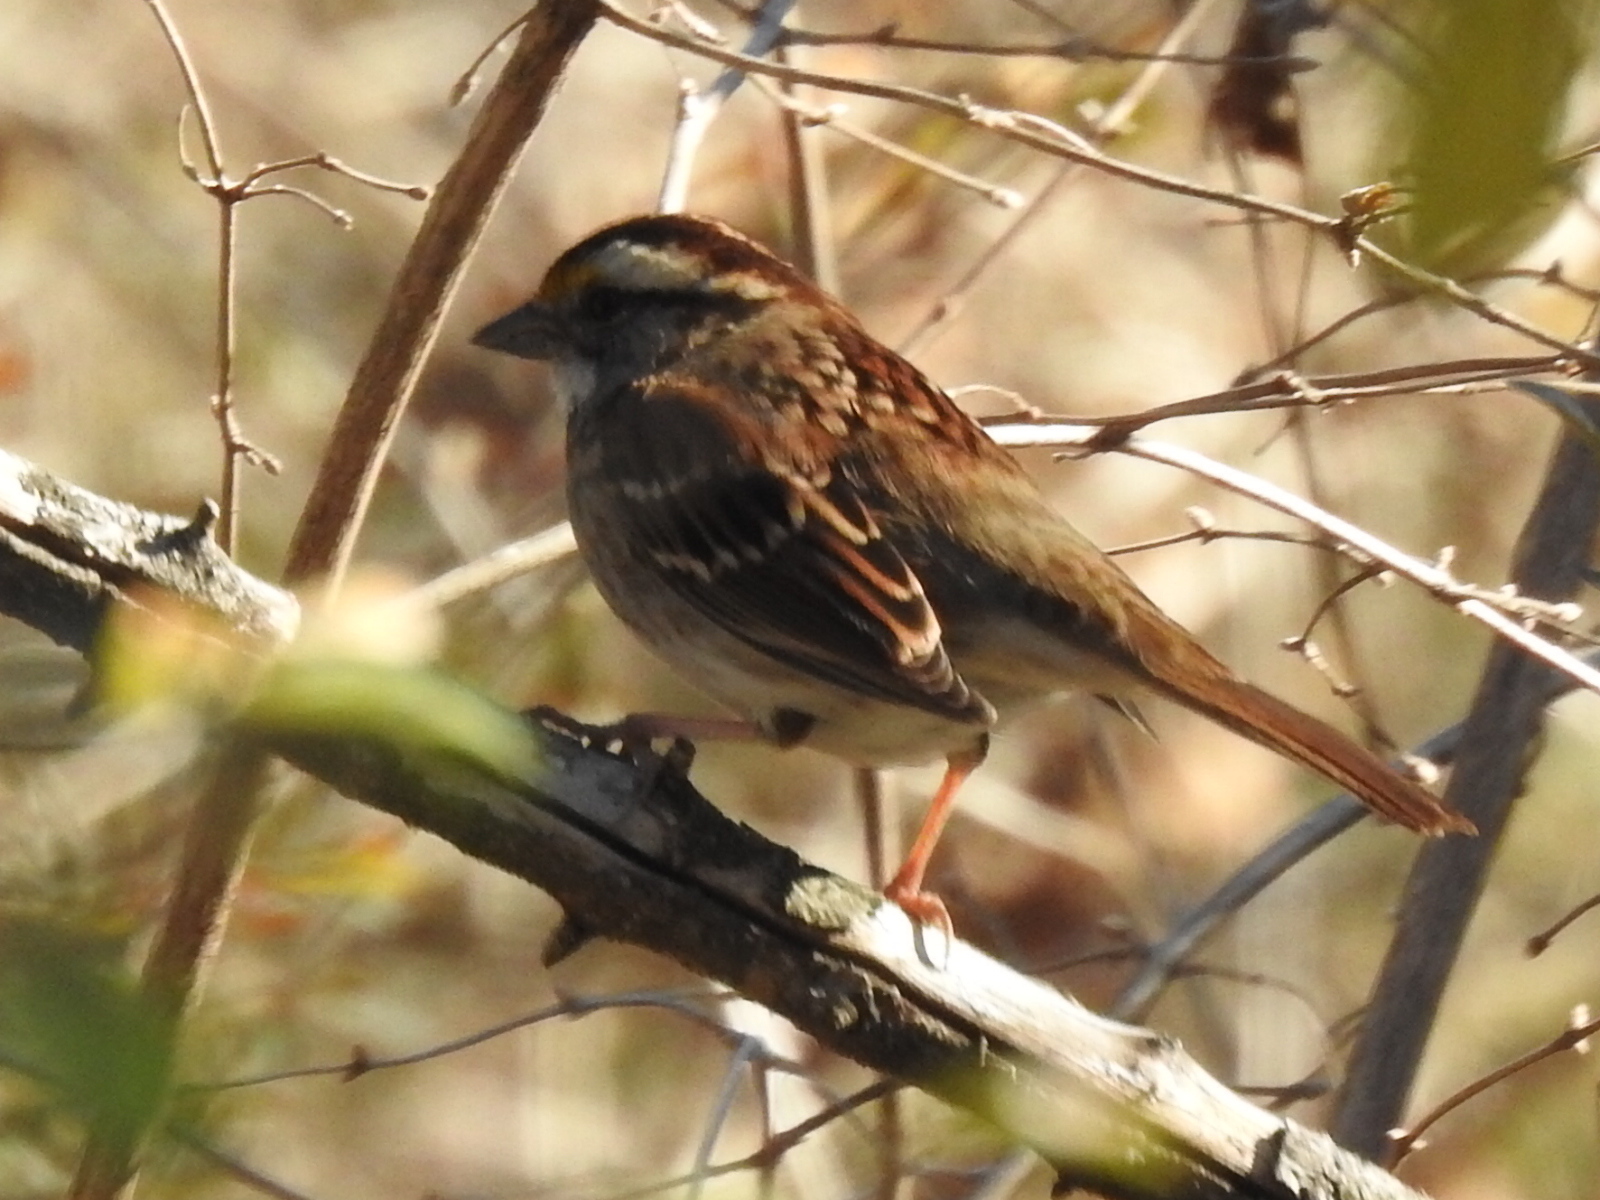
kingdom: Animalia
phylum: Chordata
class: Aves
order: Passeriformes
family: Passerellidae
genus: Zonotrichia
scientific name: Zonotrichia albicollis
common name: White-throated sparrow
